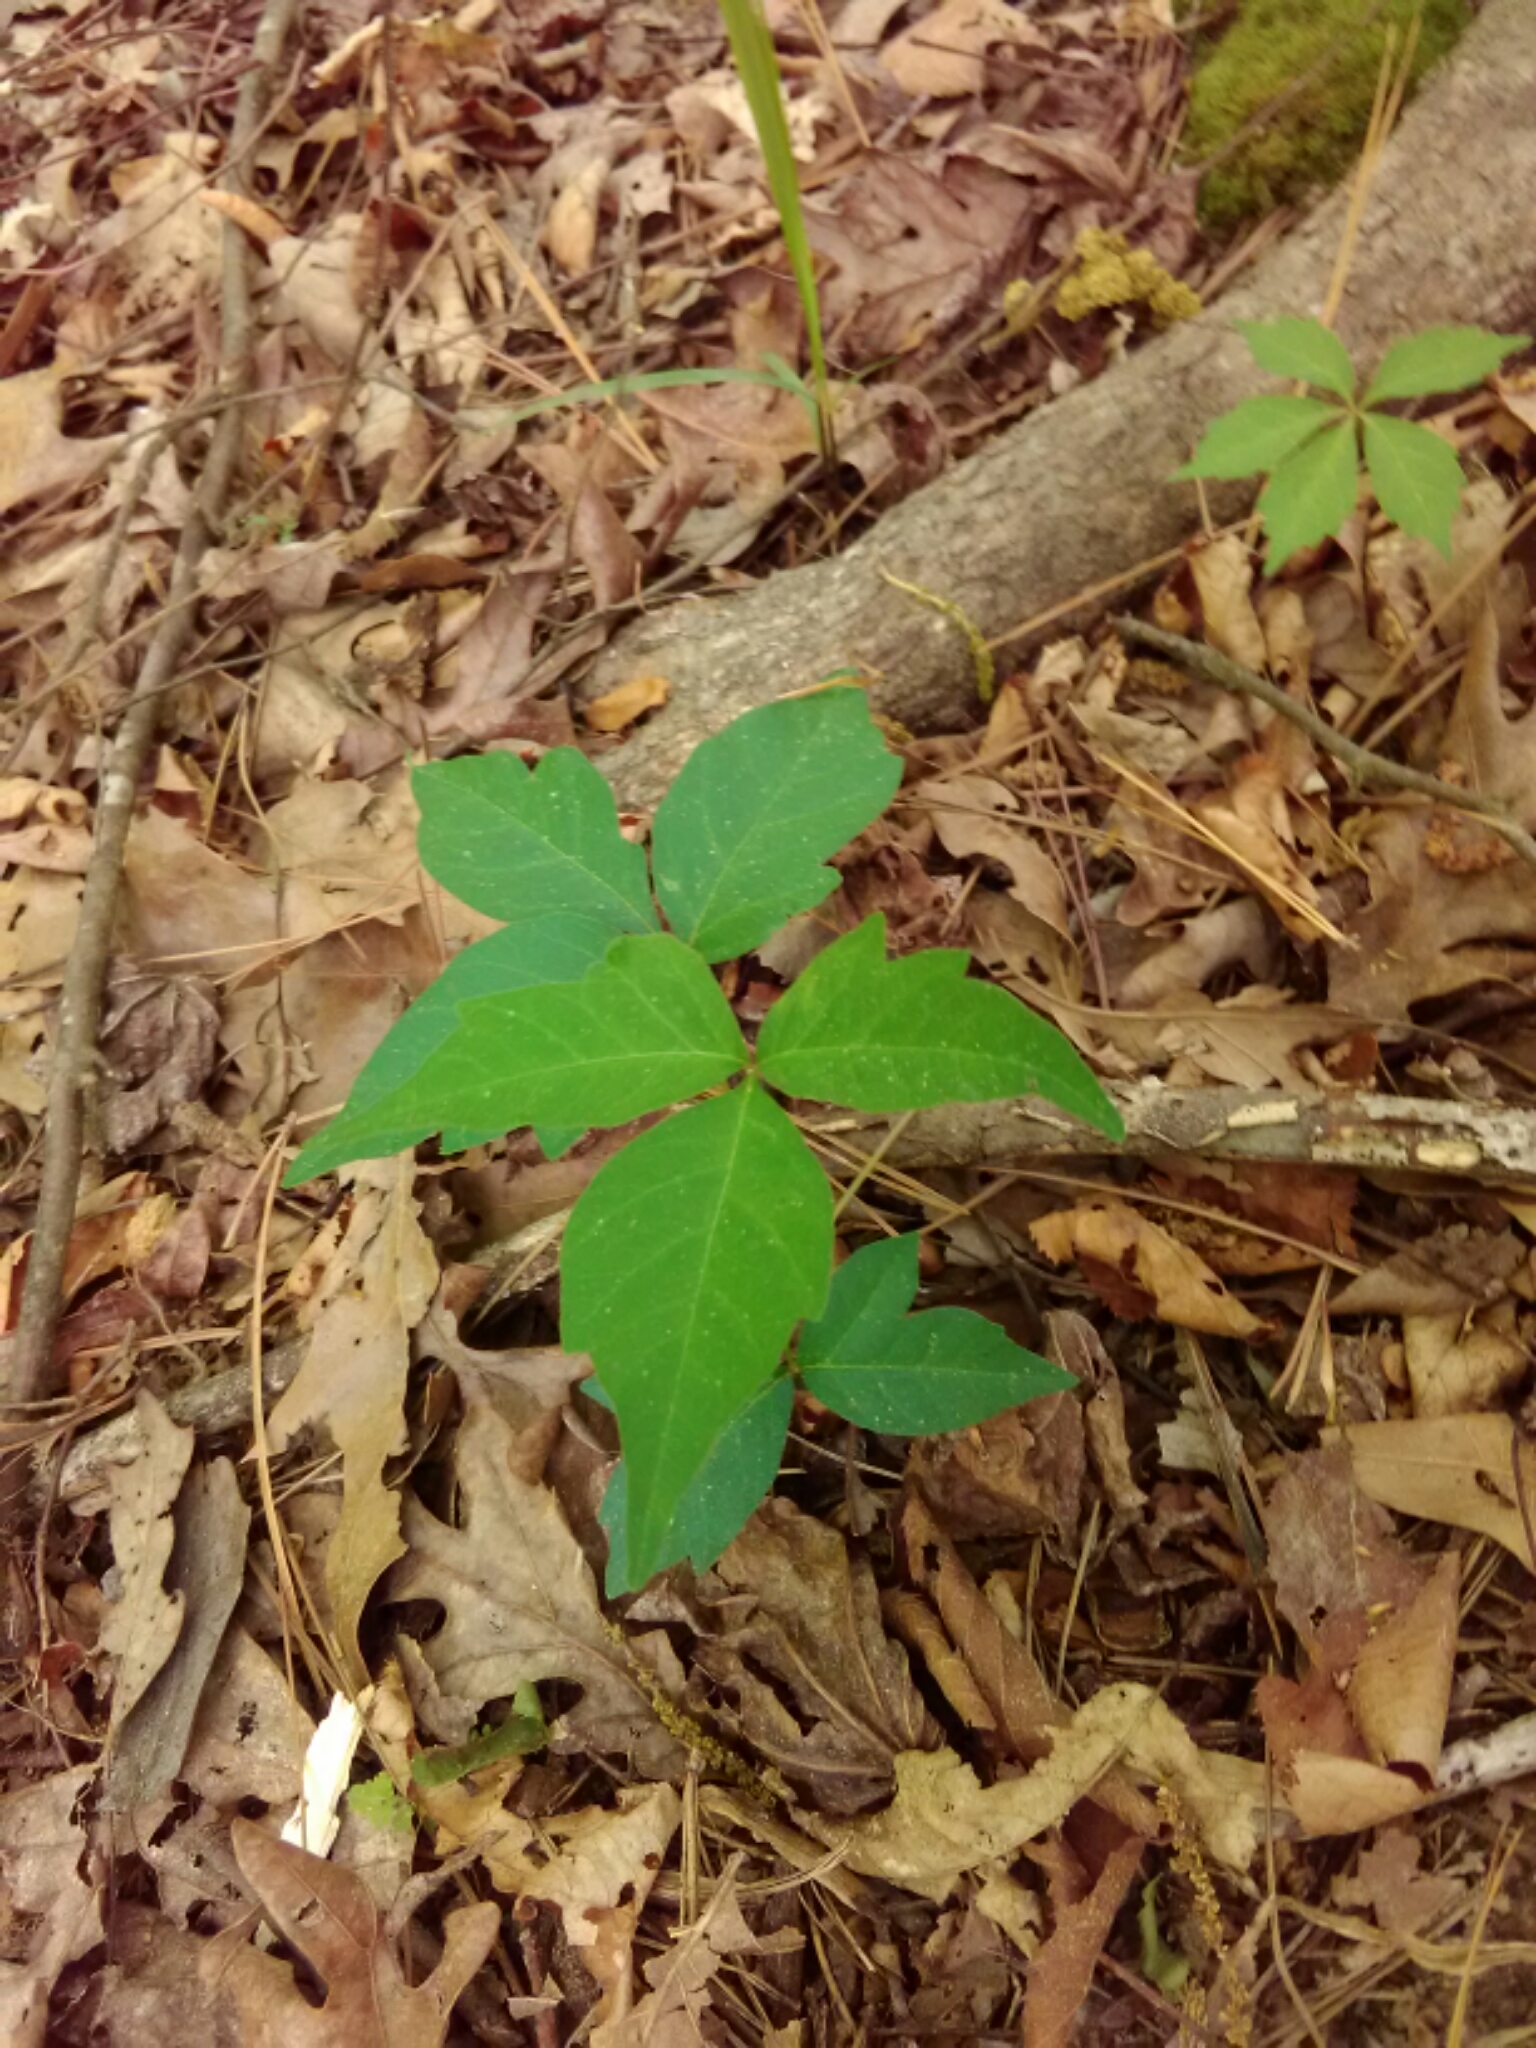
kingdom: Plantae
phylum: Tracheophyta
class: Magnoliopsida
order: Sapindales
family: Anacardiaceae
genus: Toxicodendron
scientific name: Toxicodendron radicans
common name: Poison ivy
